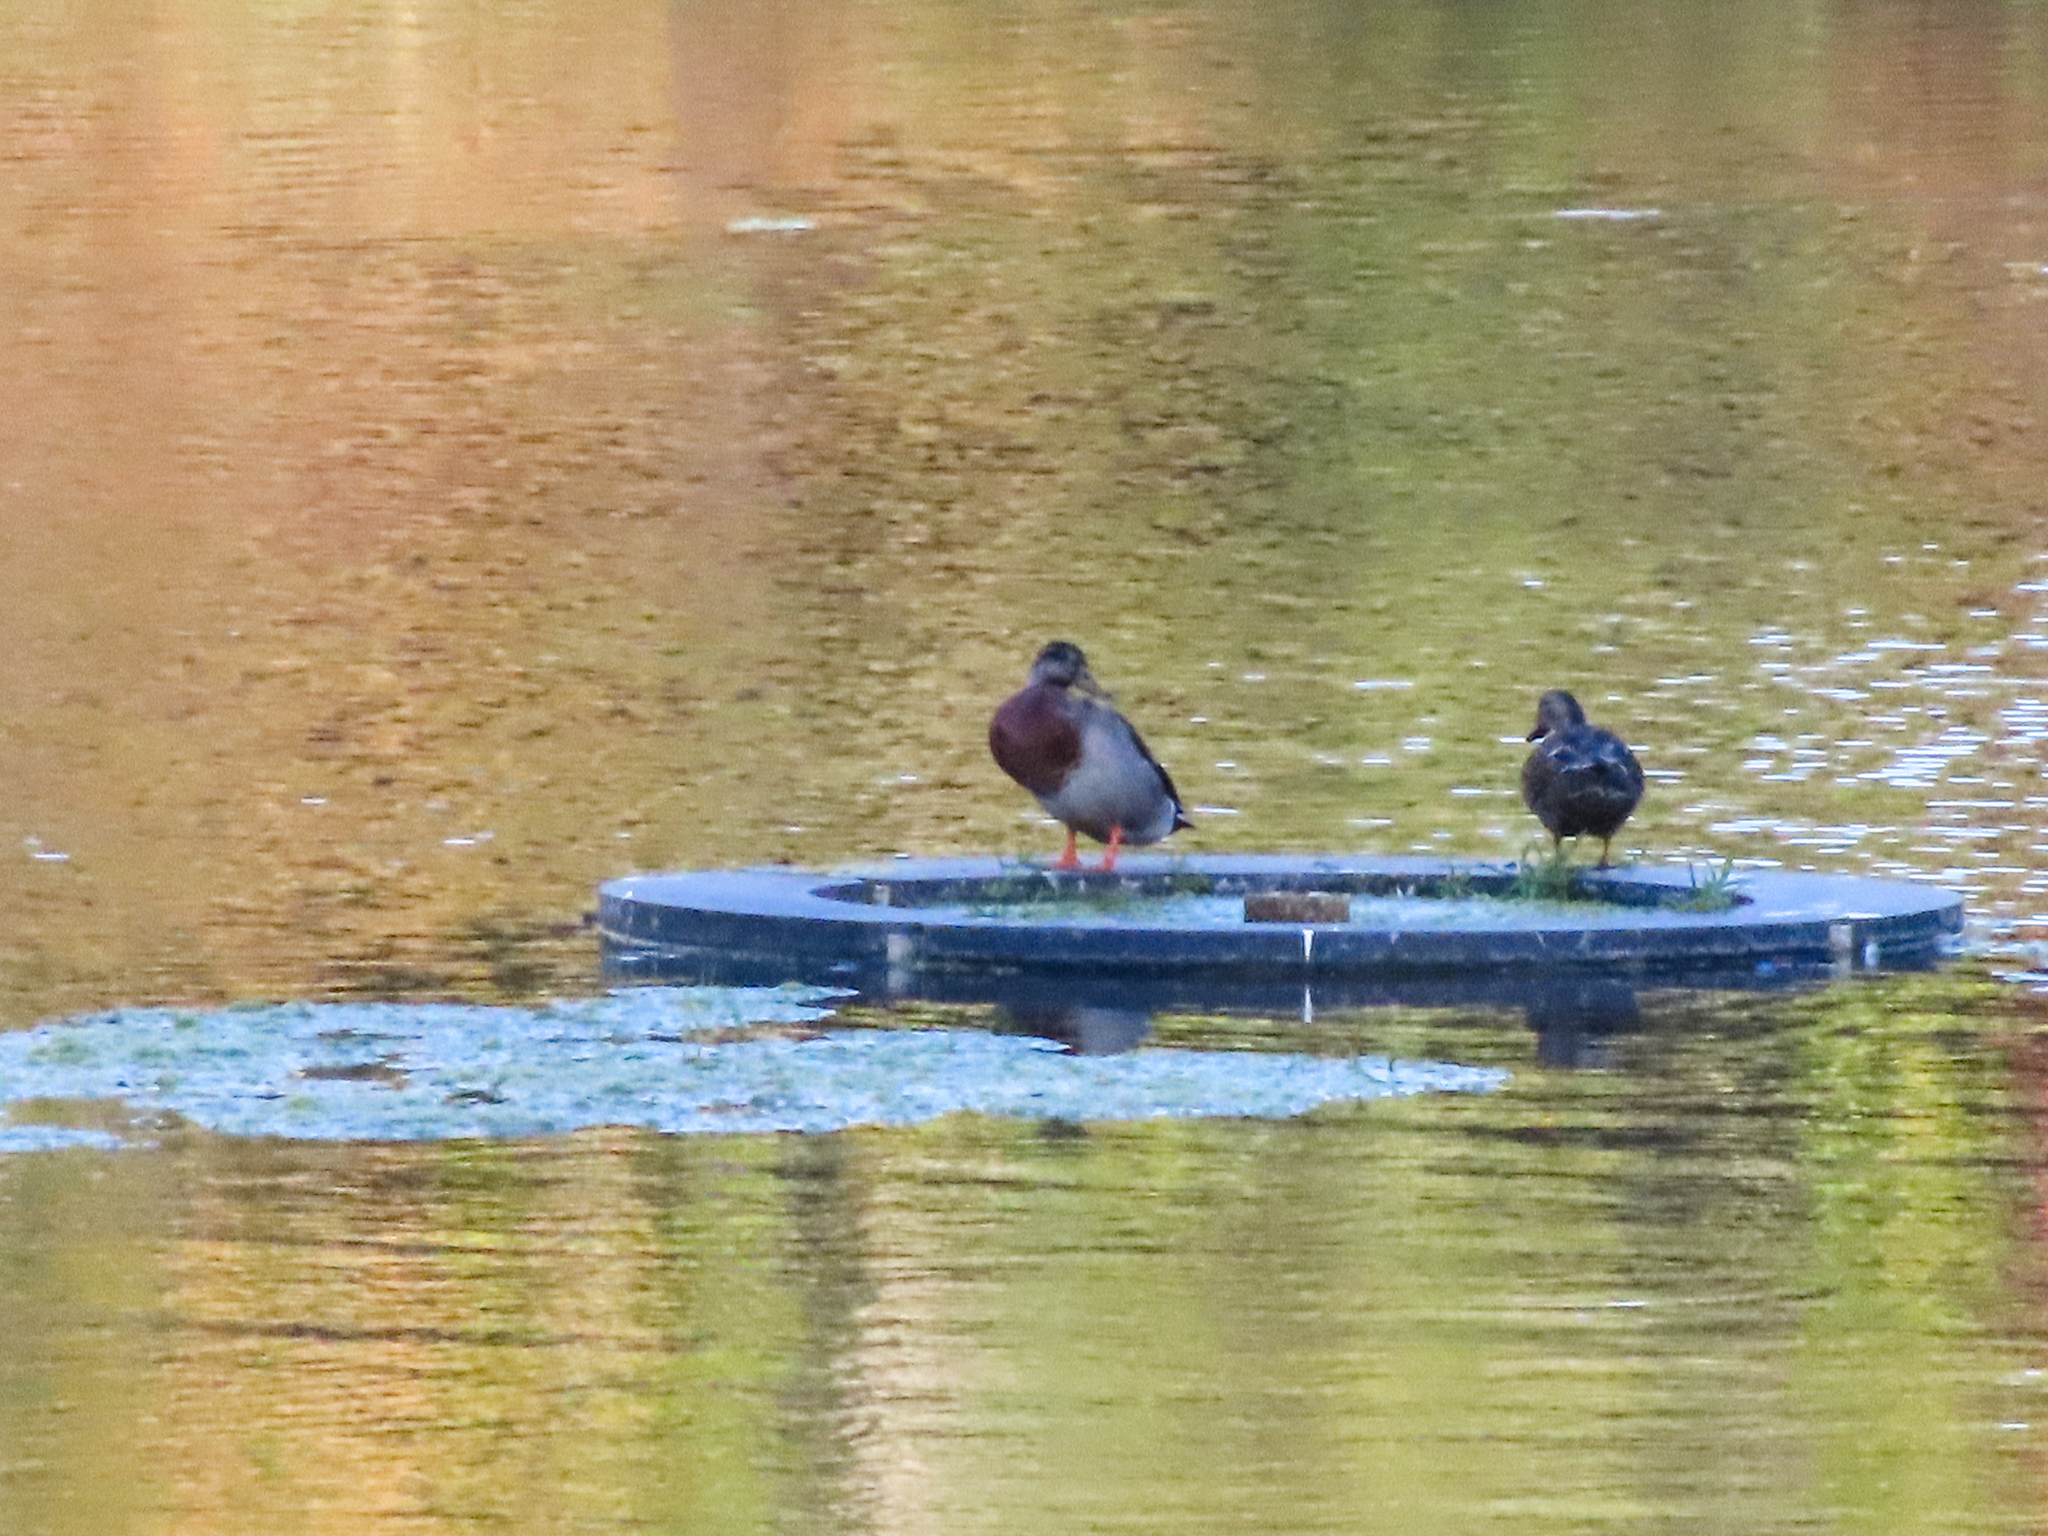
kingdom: Animalia
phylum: Chordata
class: Aves
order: Anseriformes
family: Anatidae
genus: Anas
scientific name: Anas platyrhynchos
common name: Mallard
